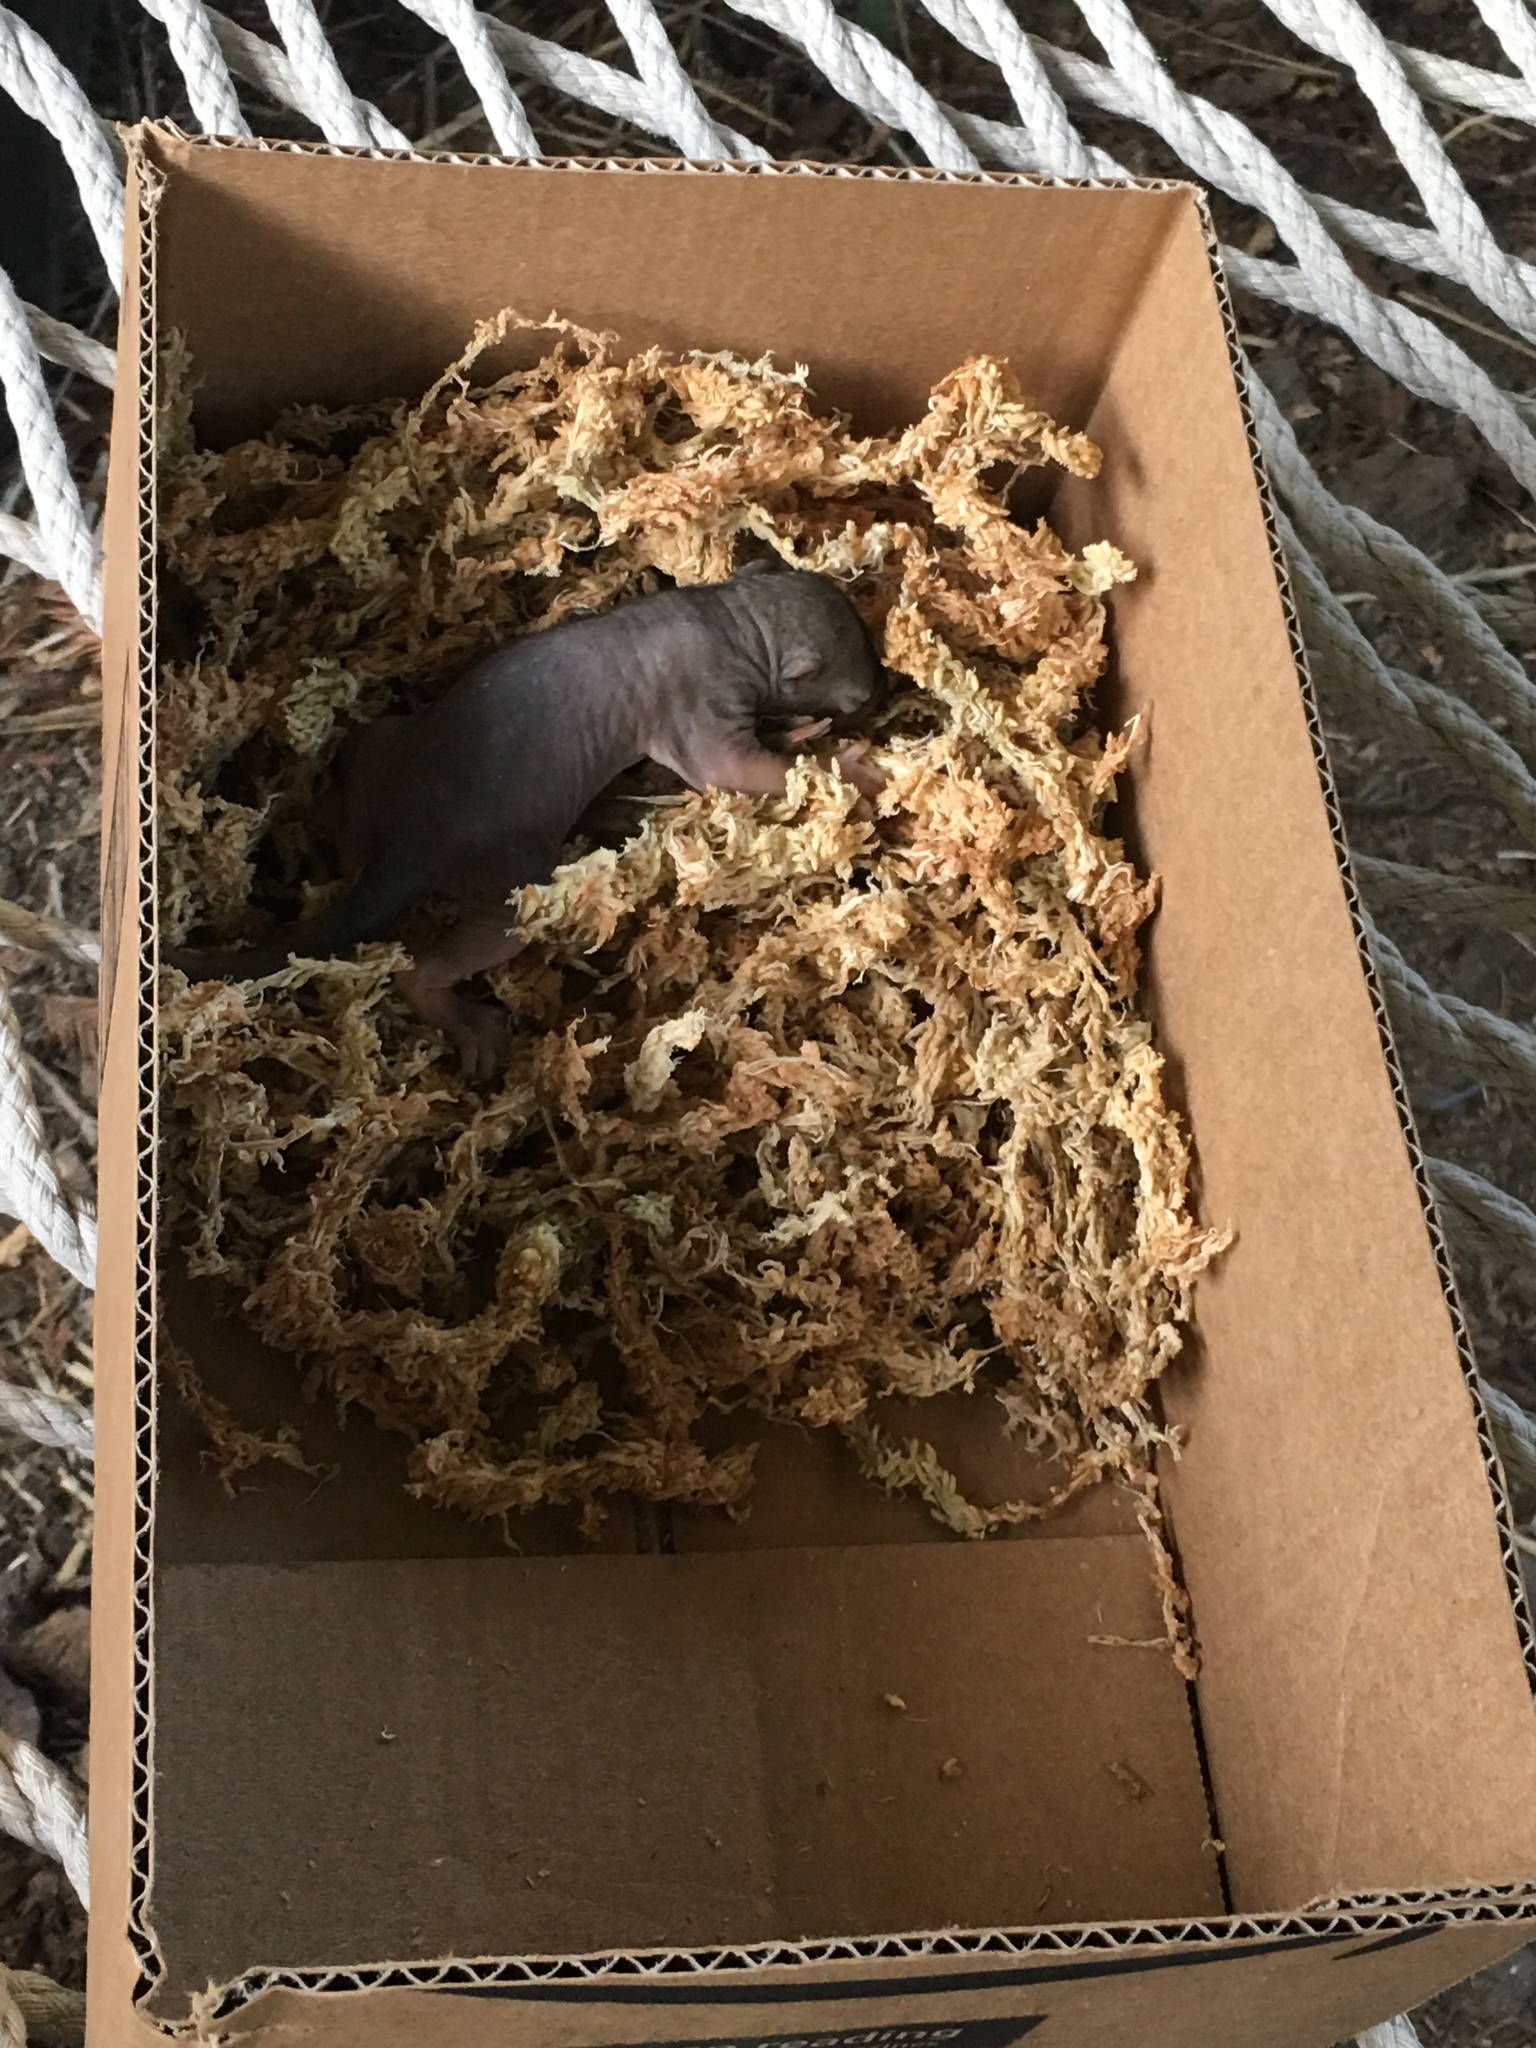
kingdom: Animalia
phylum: Chordata
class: Mammalia
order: Rodentia
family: Sciuridae
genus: Sciurus
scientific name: Sciurus niger
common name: Fox squirrel
